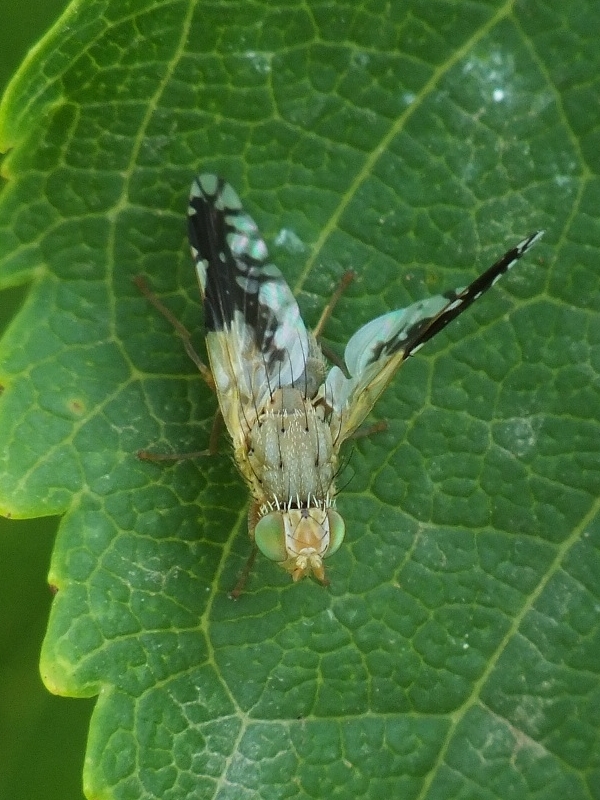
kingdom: Animalia
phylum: Arthropoda
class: Insecta
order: Diptera
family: Tephritidae
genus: Tephritis
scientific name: Tephritis hurvitzi
